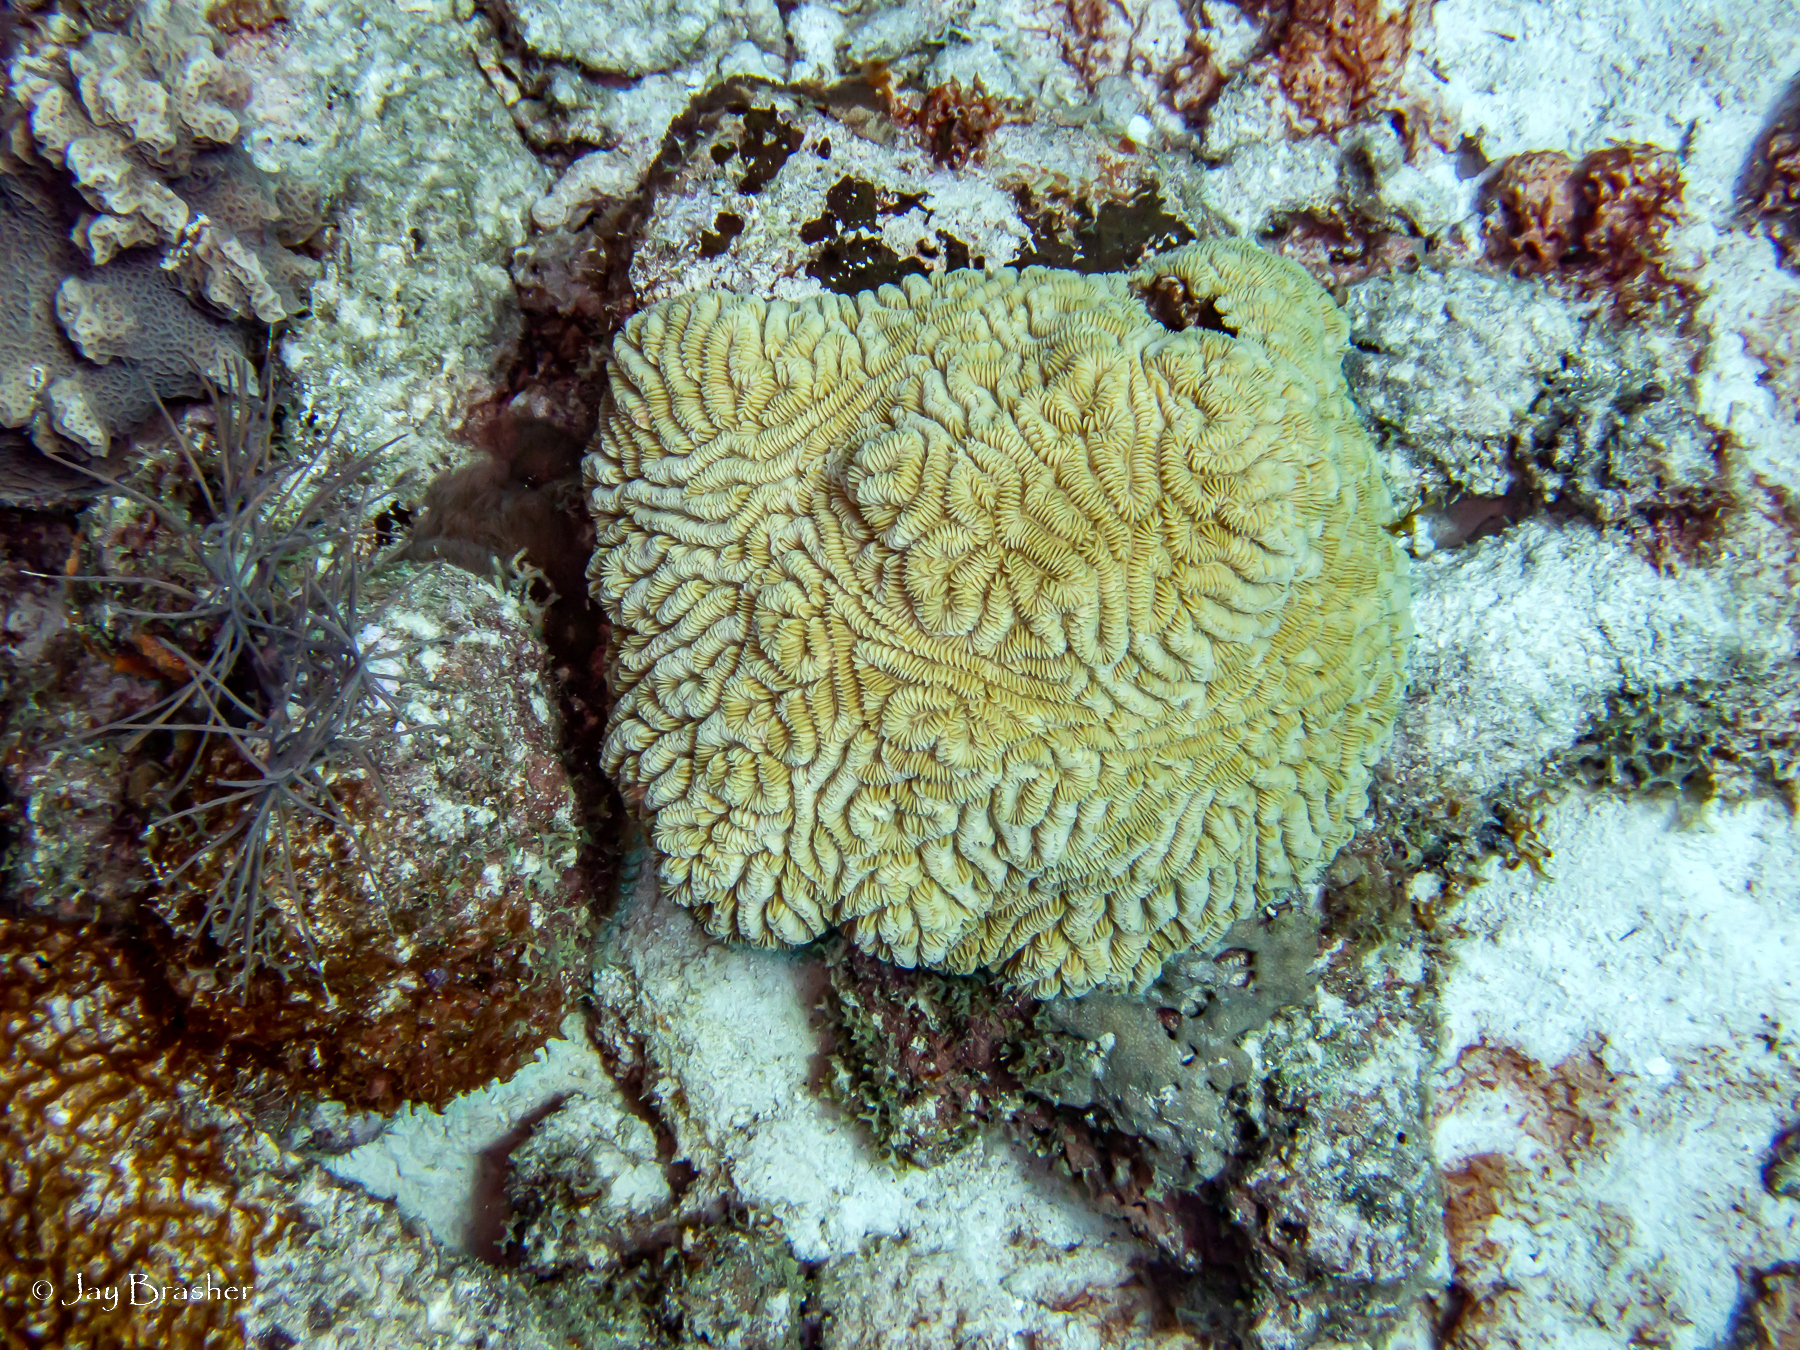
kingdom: Animalia
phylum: Cnidaria
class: Anthozoa
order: Scleractinia
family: Meandrinidae
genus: Meandrina
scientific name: Meandrina meandrites
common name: Maze coral
